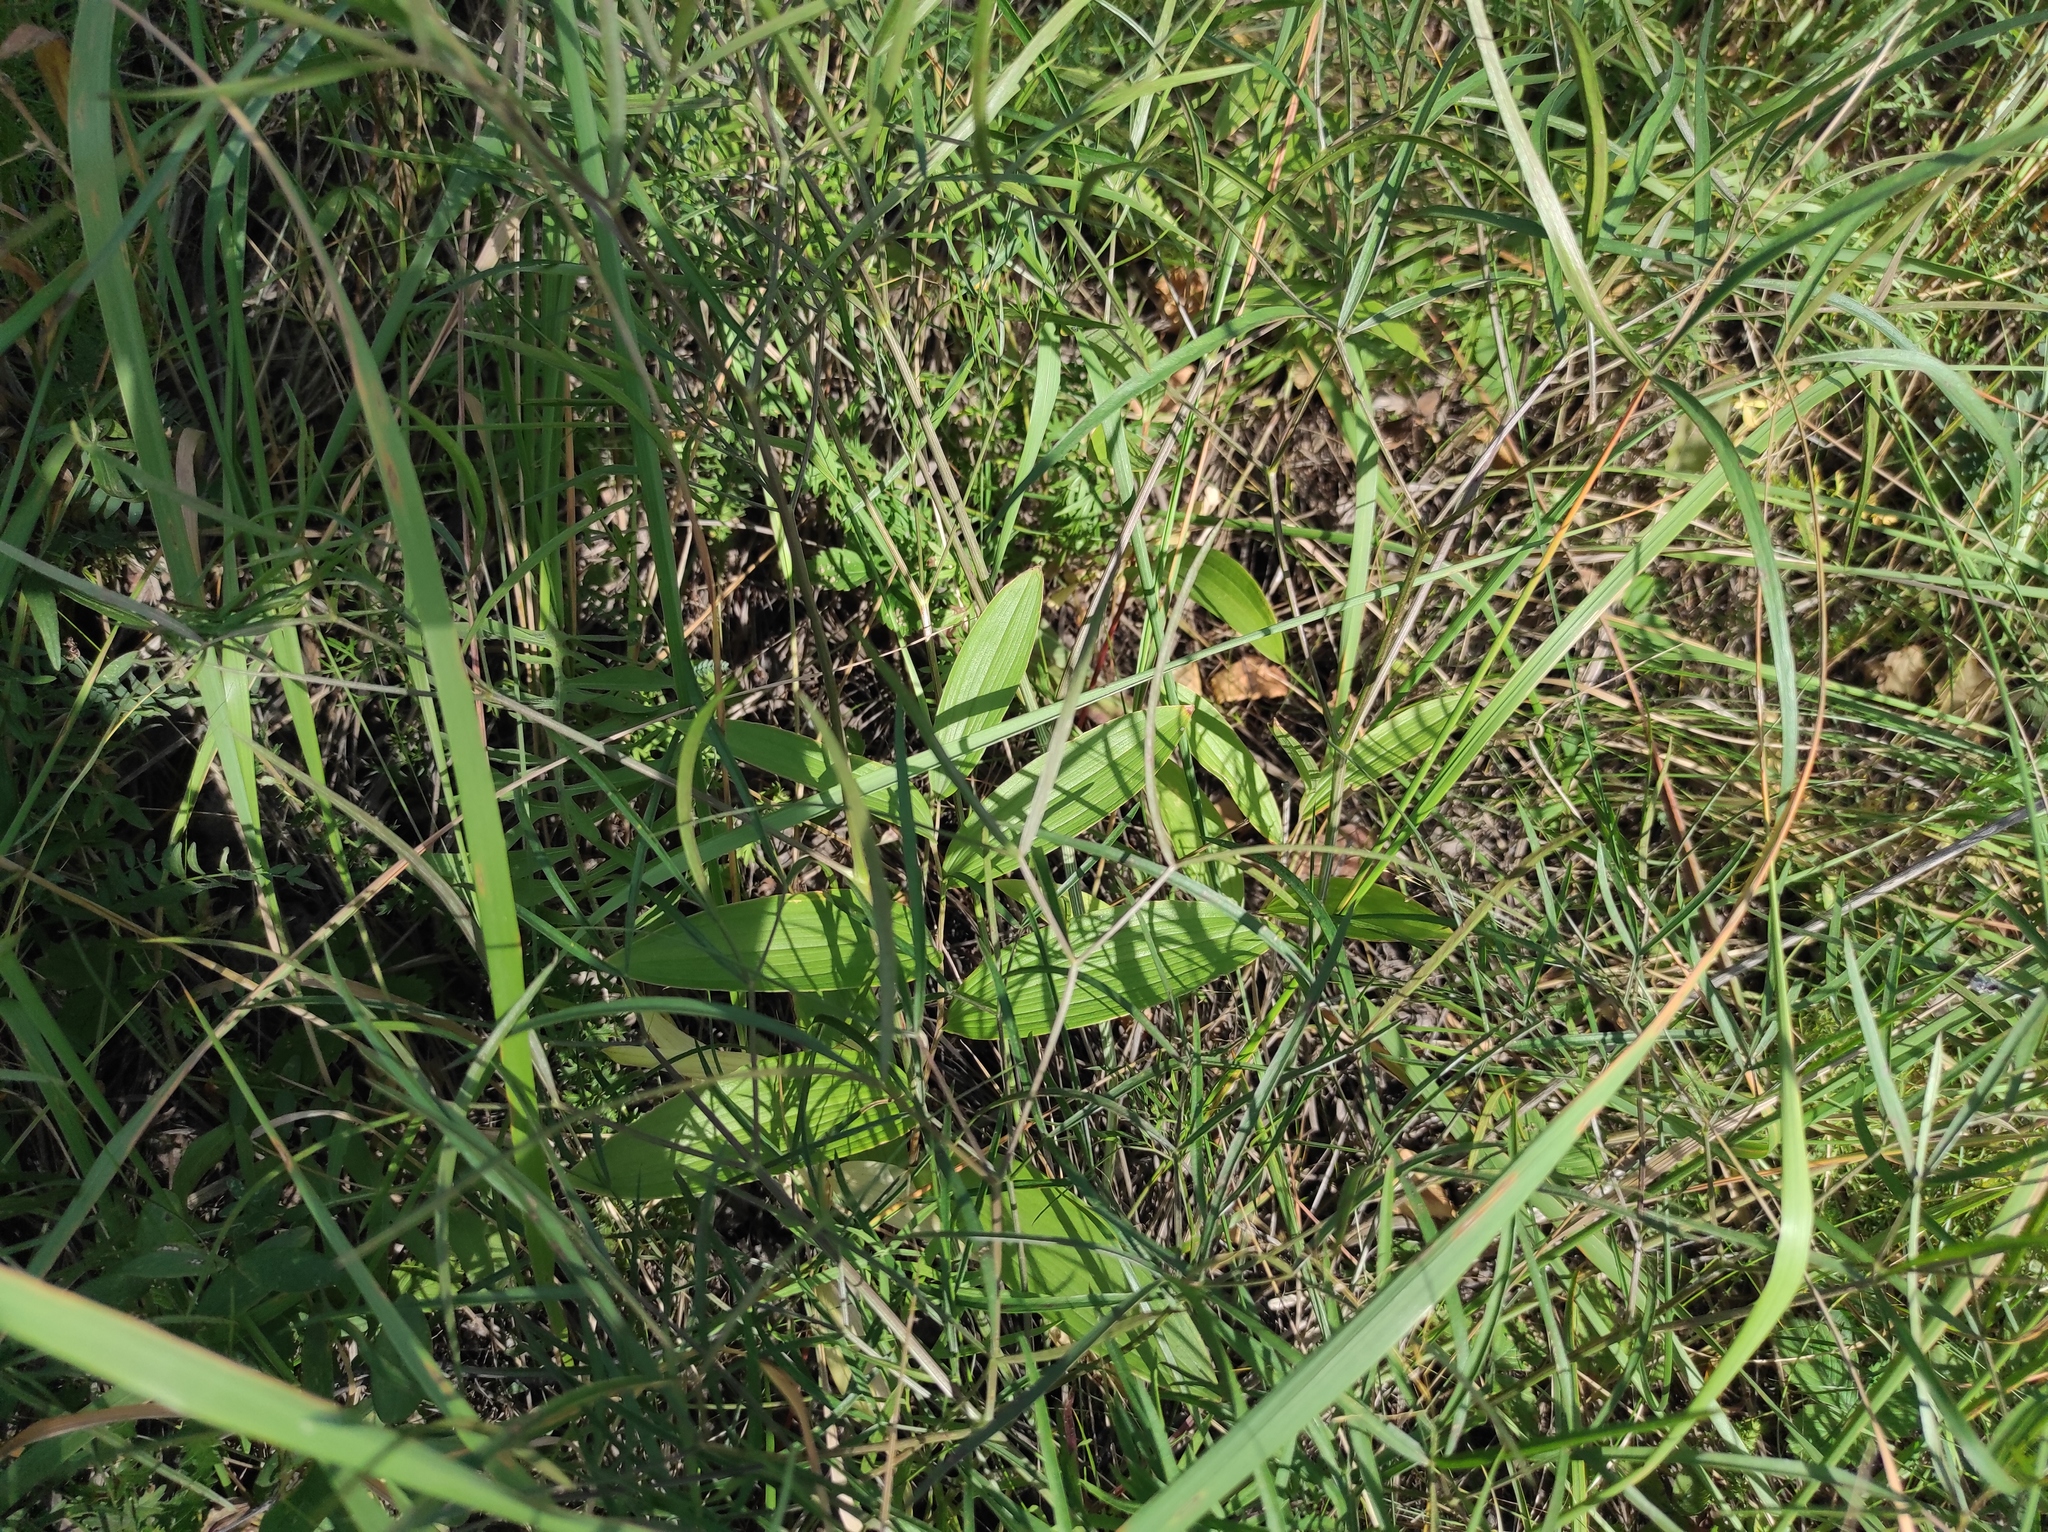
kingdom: Plantae
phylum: Tracheophyta
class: Liliopsida
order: Asparagales
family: Asparagaceae
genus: Polygonatum
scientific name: Polygonatum humile
